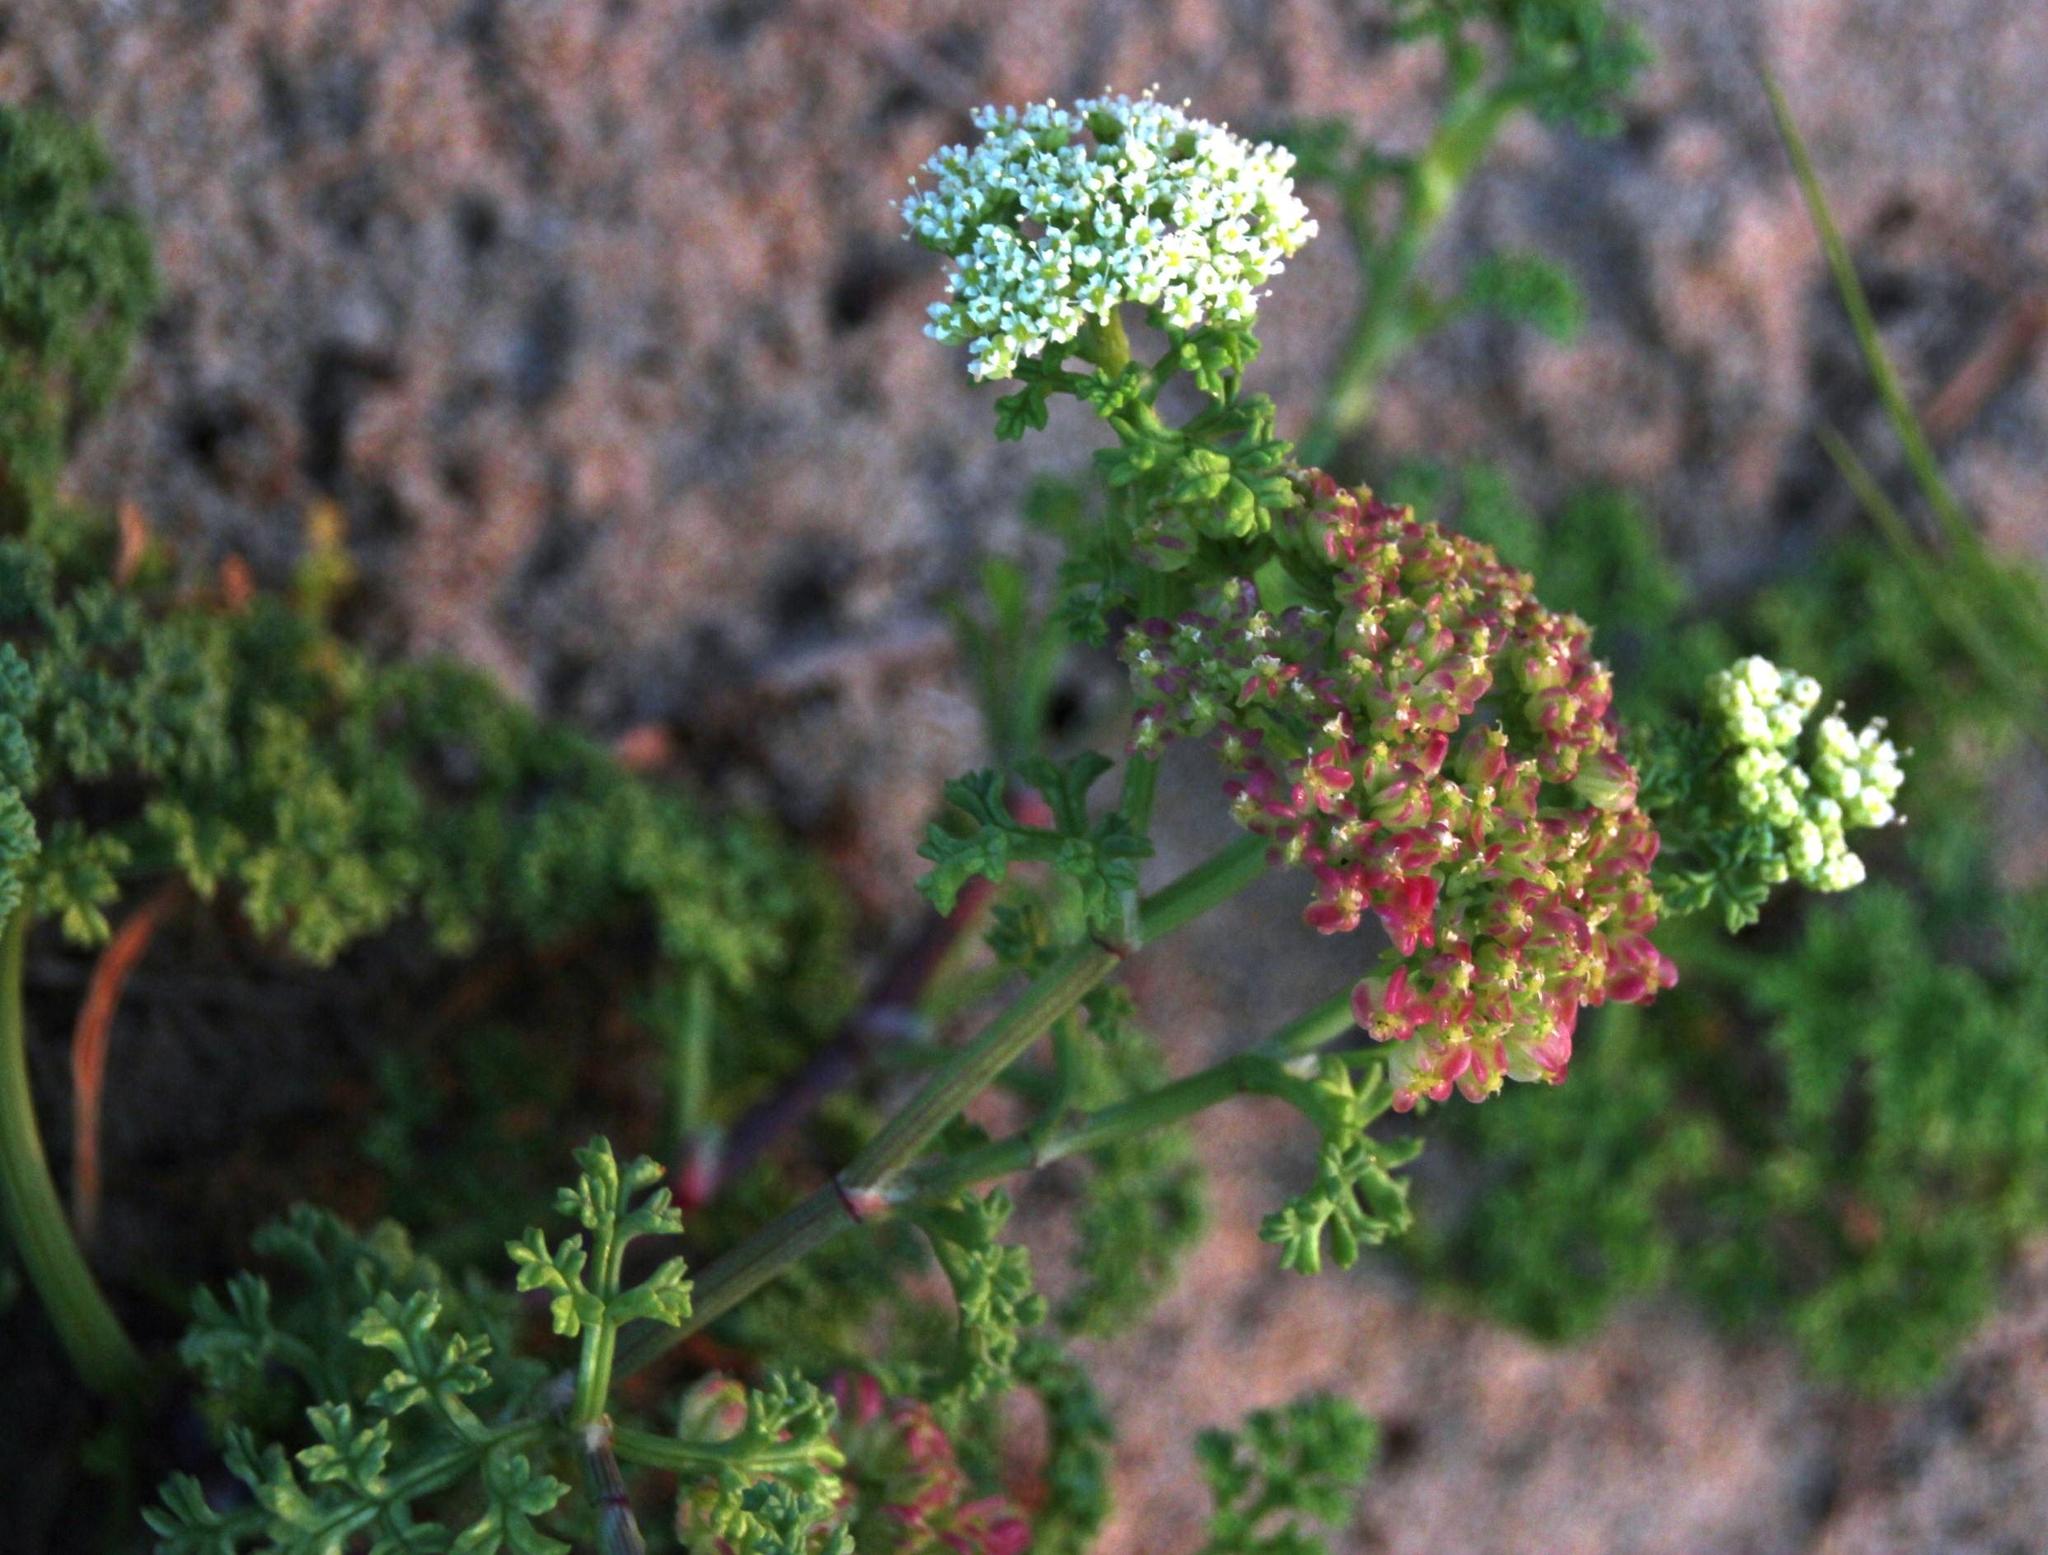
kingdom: Plantae
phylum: Tracheophyta
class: Magnoliopsida
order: Apiales
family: Apiaceae
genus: Dasispermum
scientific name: Dasispermum suffruticosum
